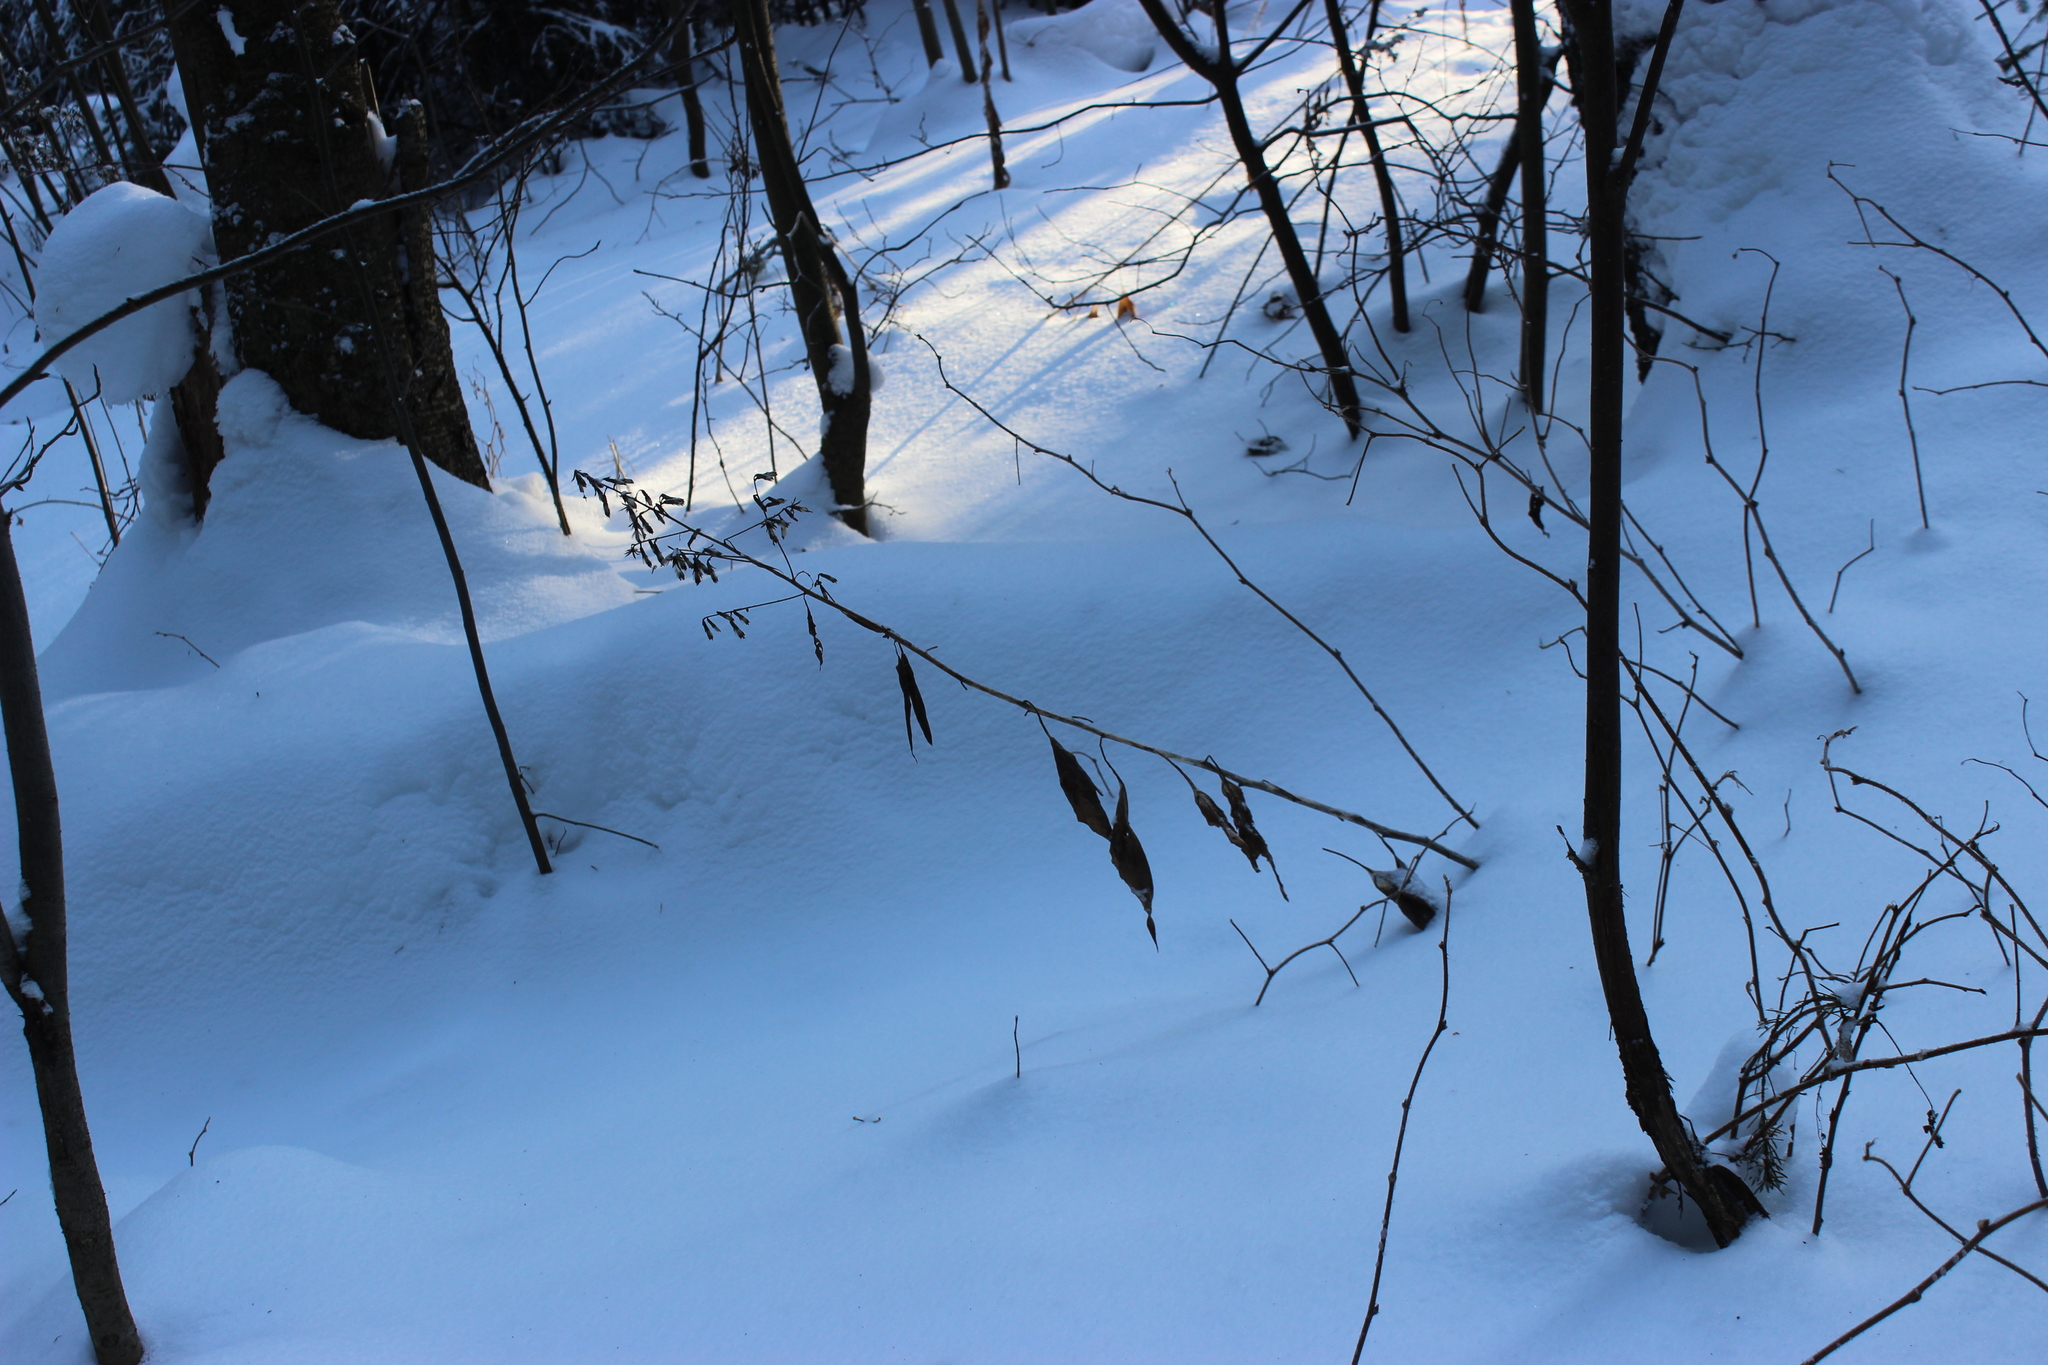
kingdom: Plantae
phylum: Tracheophyta
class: Magnoliopsida
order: Asterales
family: Asteraceae
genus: Parasenecio
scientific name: Parasenecio hastatus
